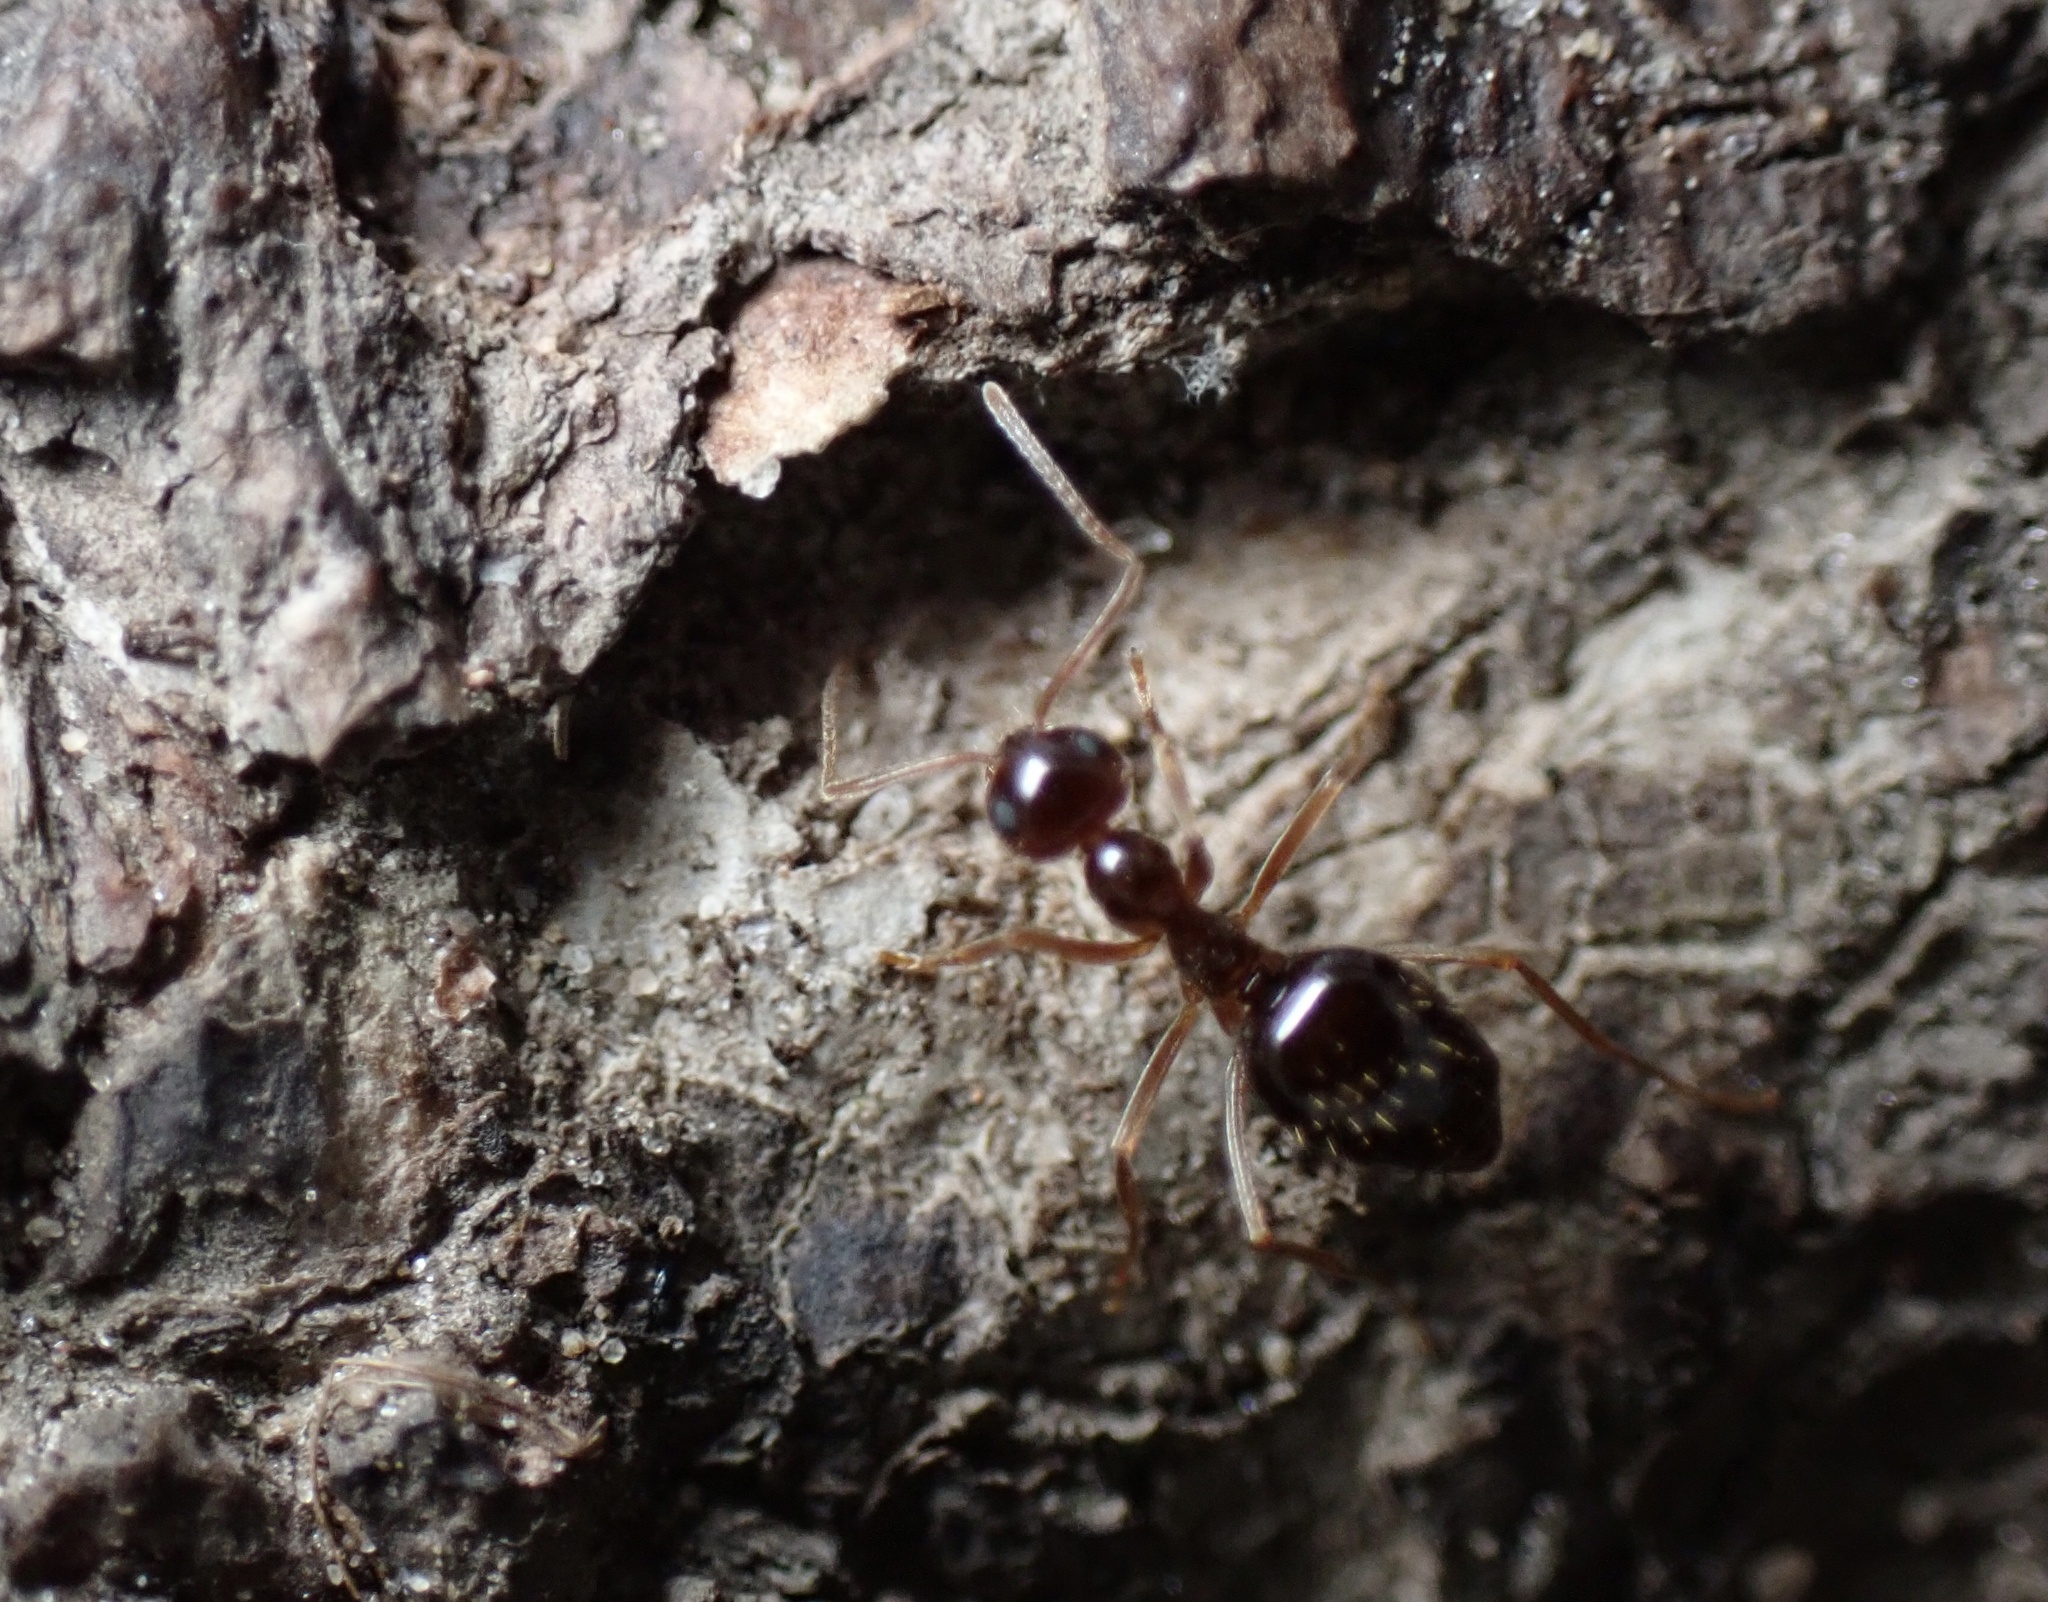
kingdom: Animalia
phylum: Arthropoda
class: Insecta
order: Hymenoptera
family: Formicidae
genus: Prenolepis
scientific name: Prenolepis imparis
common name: Small honey ant
